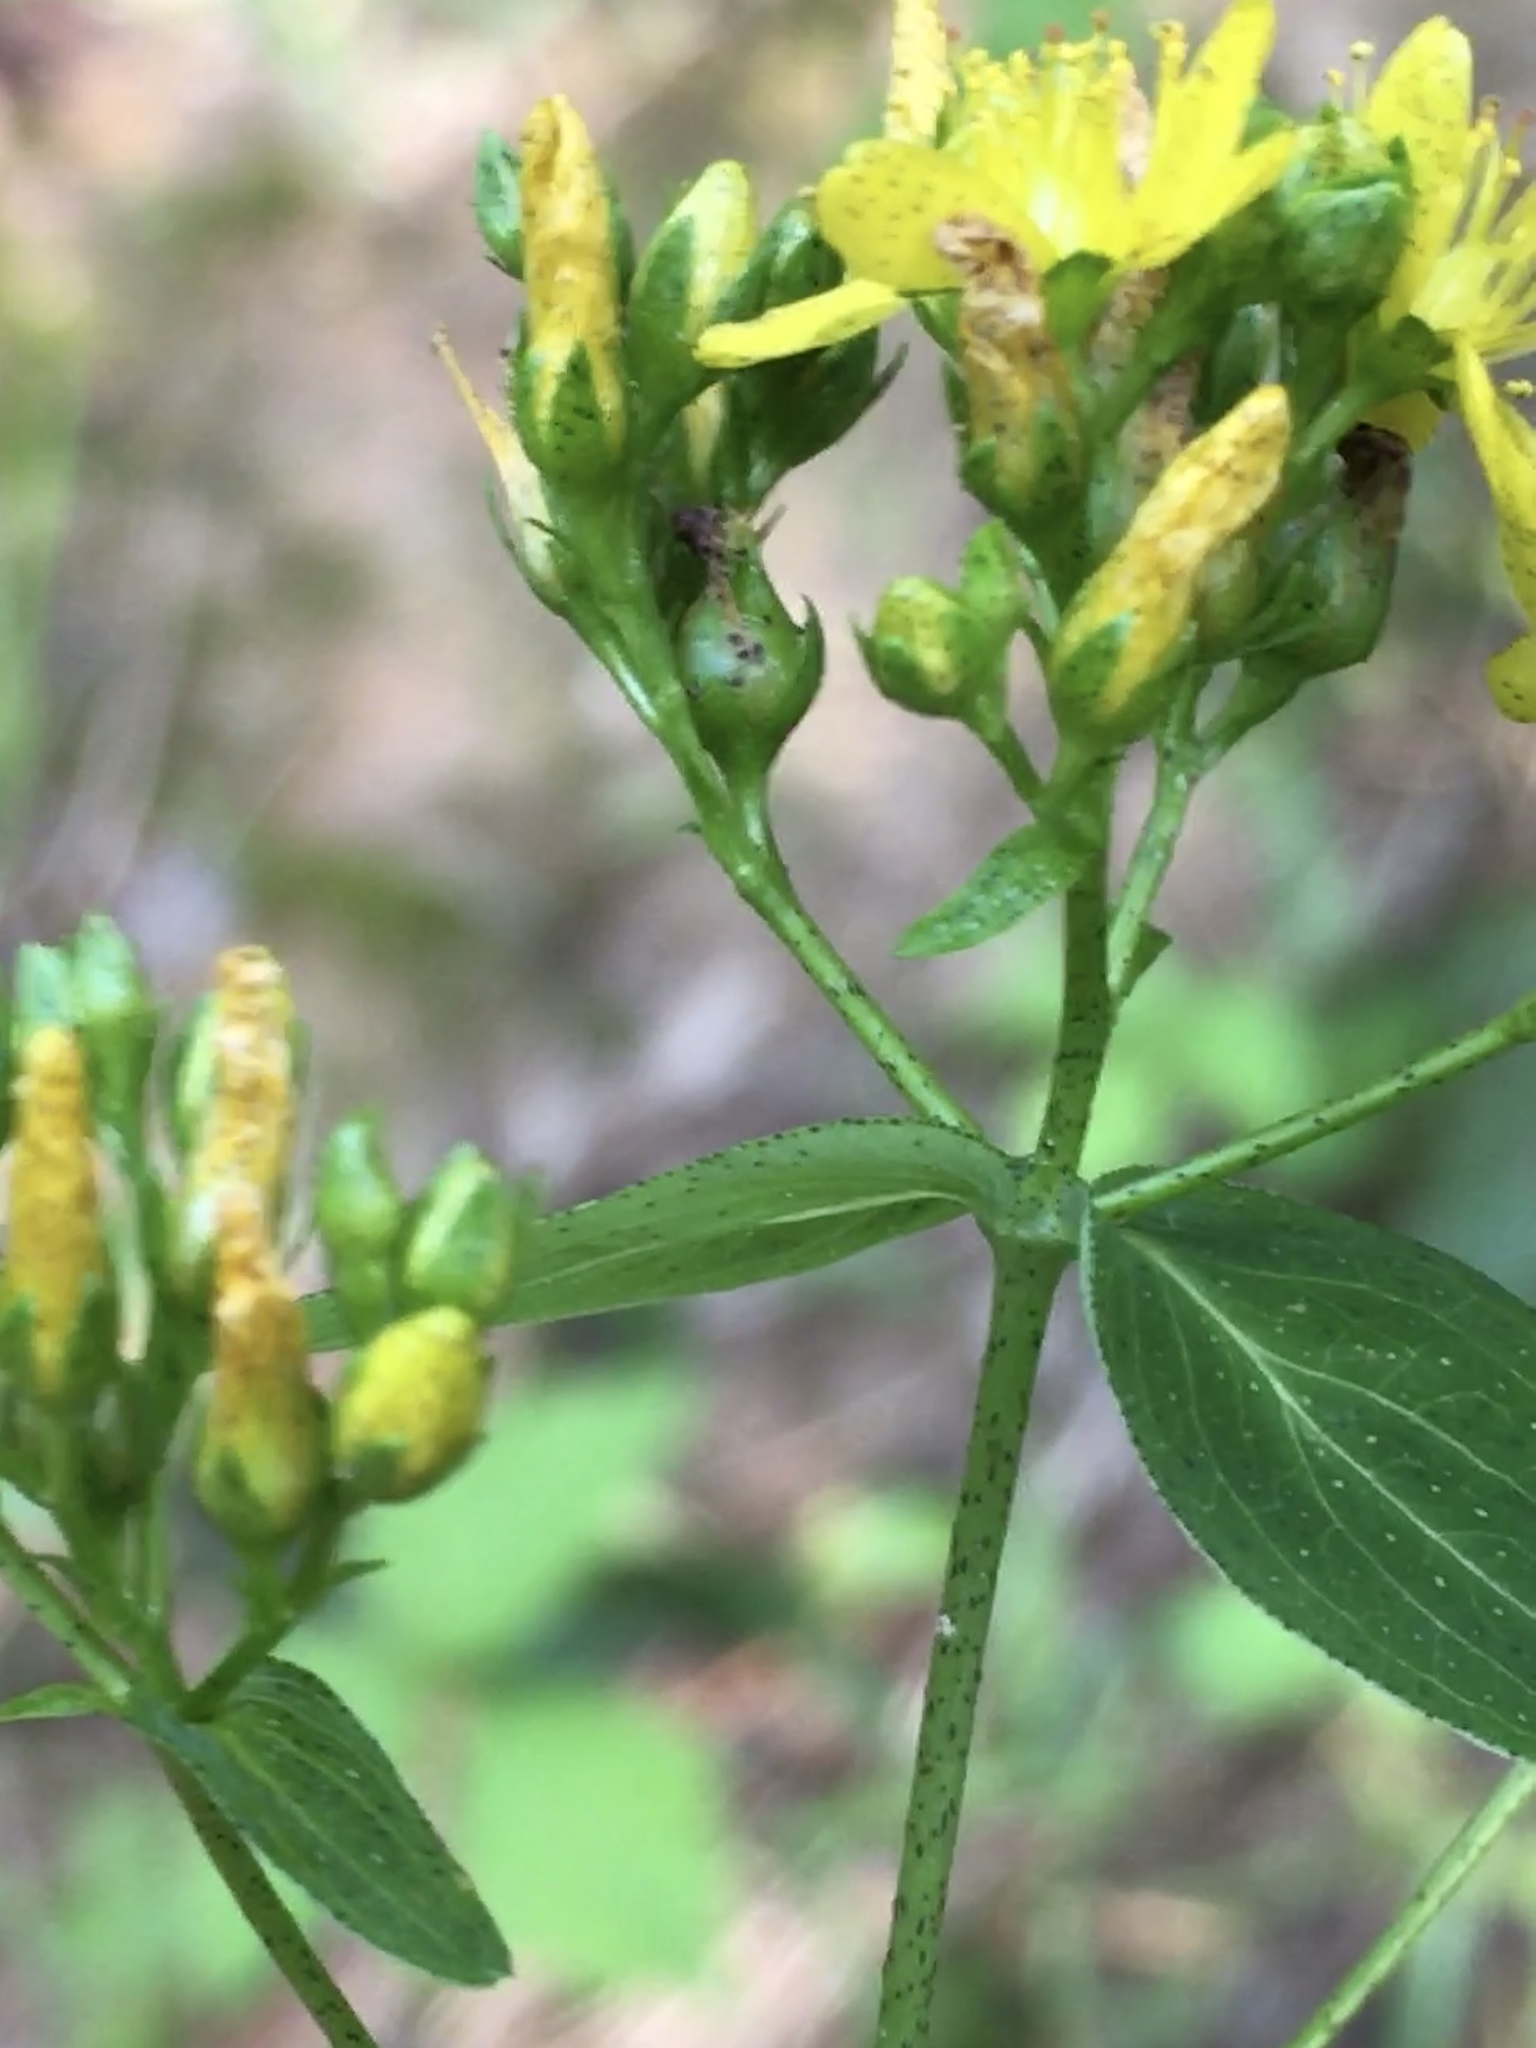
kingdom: Plantae
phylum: Tracheophyta
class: Magnoliopsida
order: Malpighiales
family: Hypericaceae
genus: Hypericum
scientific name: Hypericum punctatum
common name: Spotted st. john's-wort
